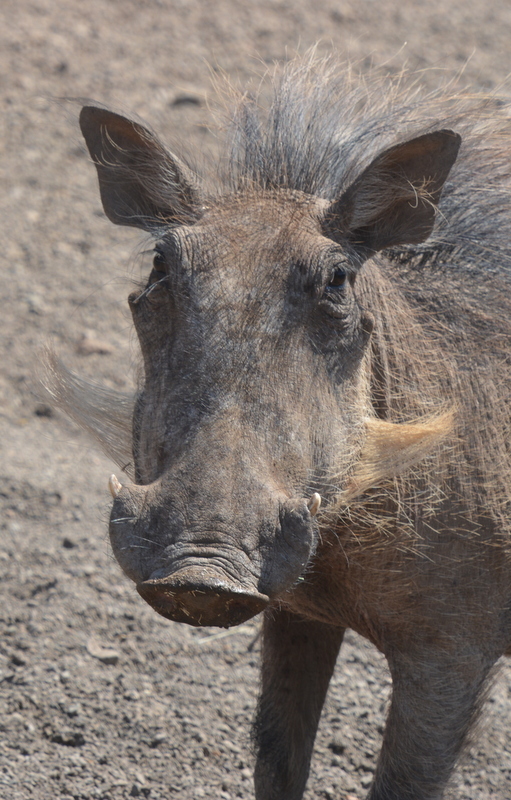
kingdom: Animalia
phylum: Chordata
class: Mammalia
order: Artiodactyla
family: Suidae
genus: Phacochoerus
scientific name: Phacochoerus africanus
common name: Common warthog
